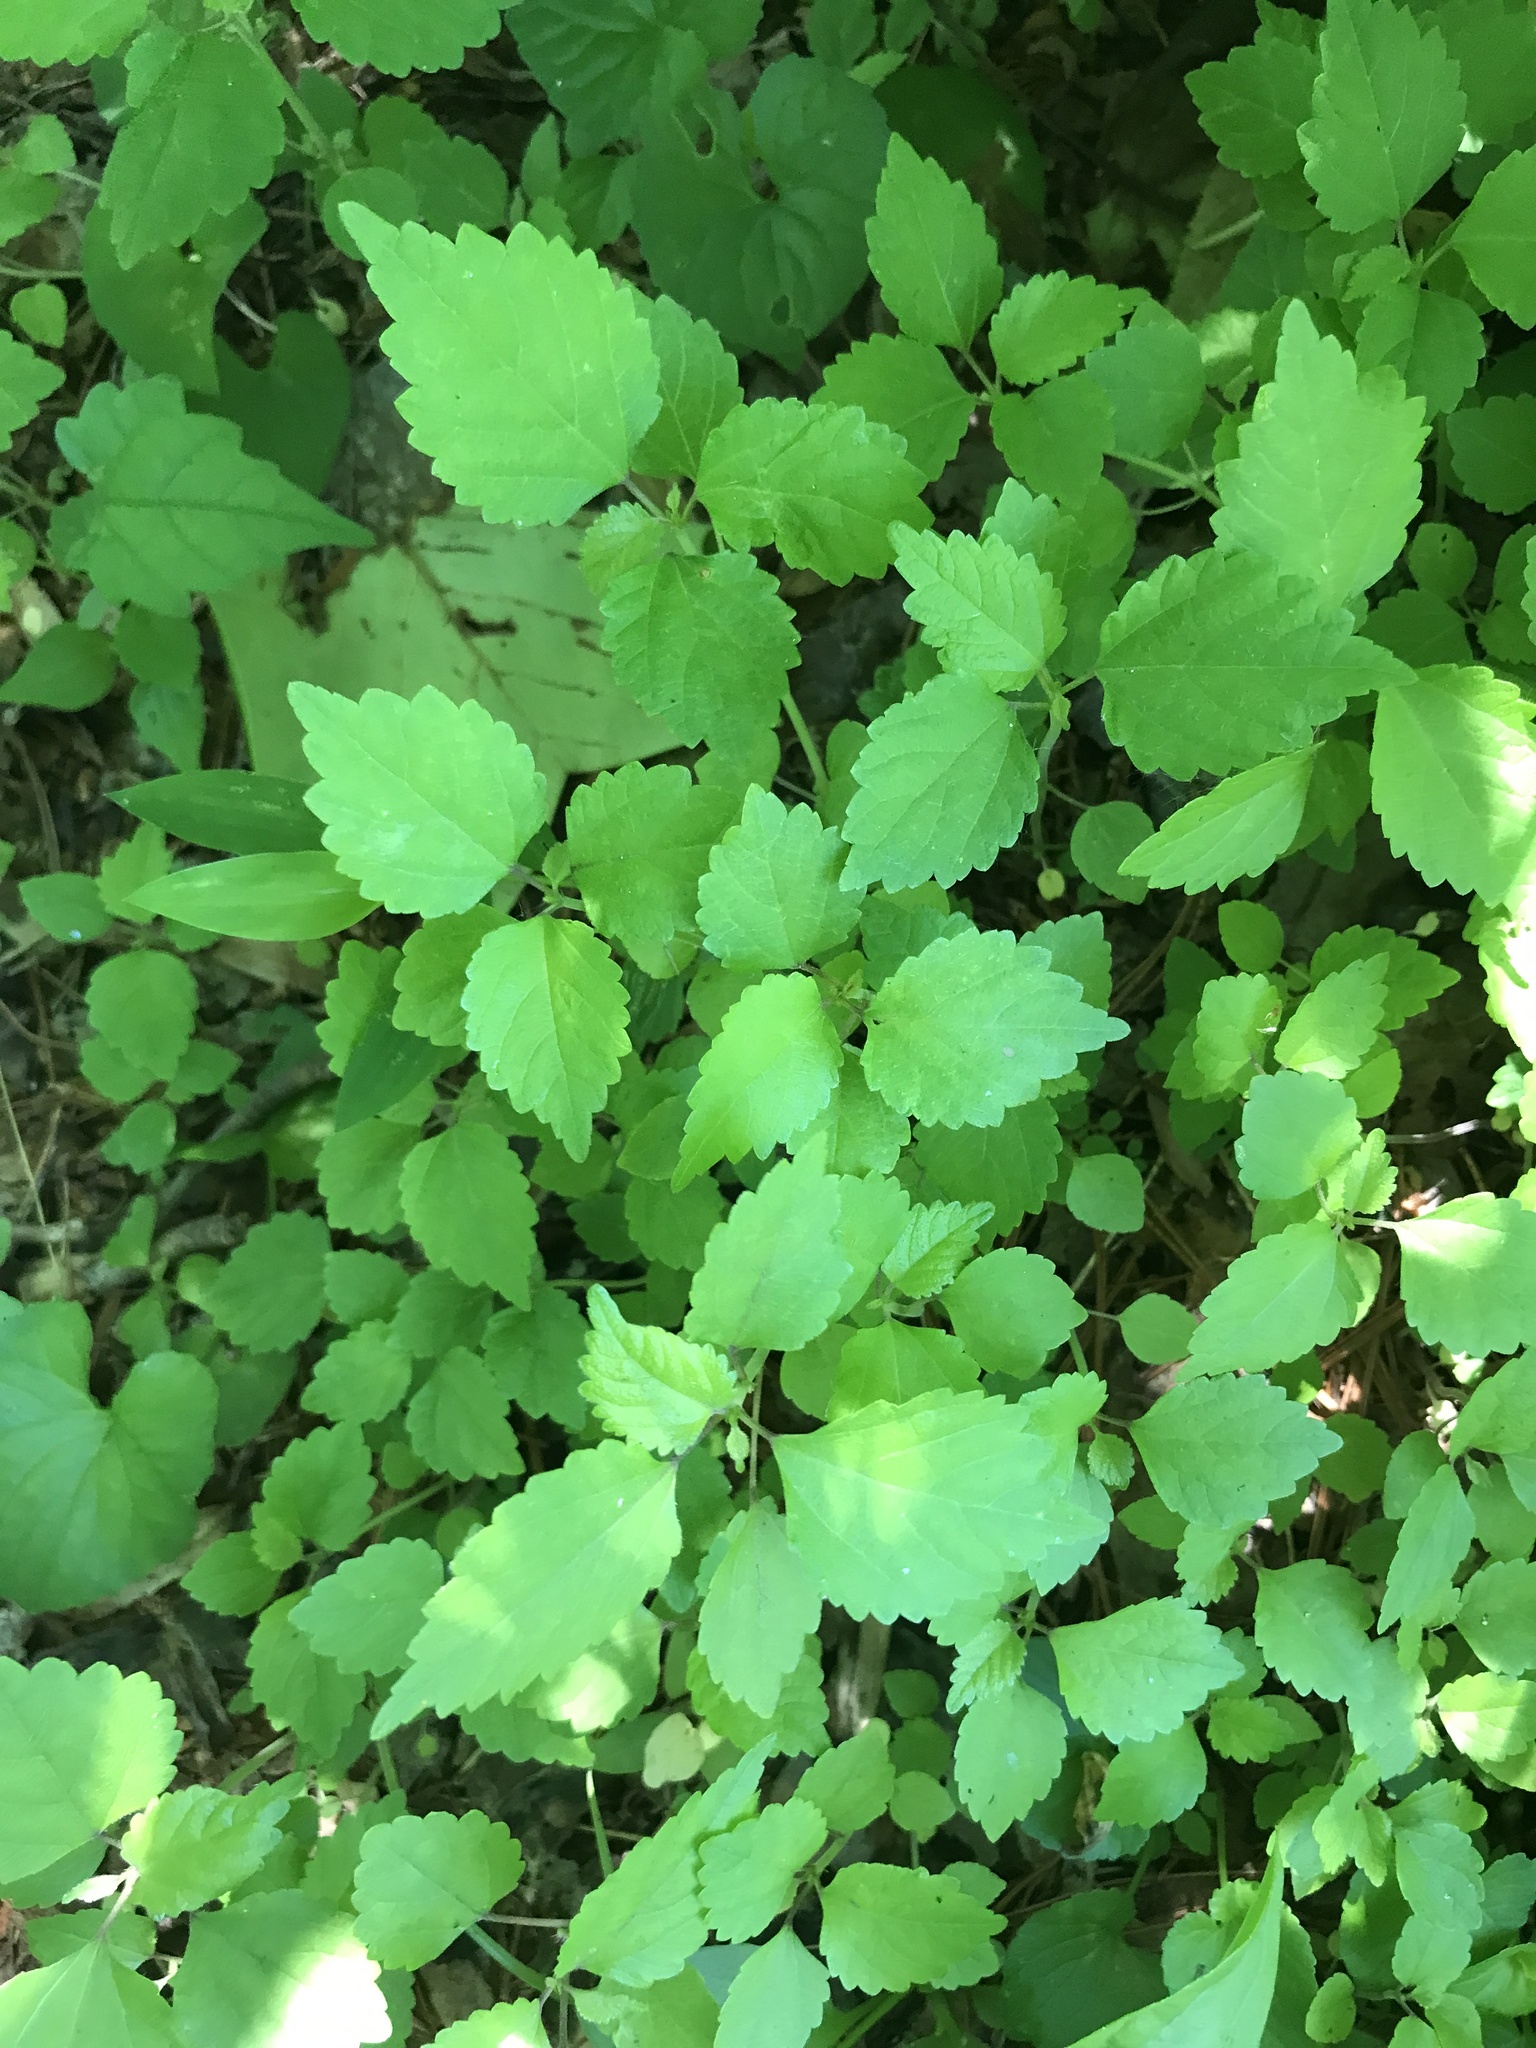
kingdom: Plantae
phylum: Tracheophyta
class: Magnoliopsida
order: Rosales
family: Moraceae
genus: Fatoua
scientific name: Fatoua villosa
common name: Hairy crabweed
